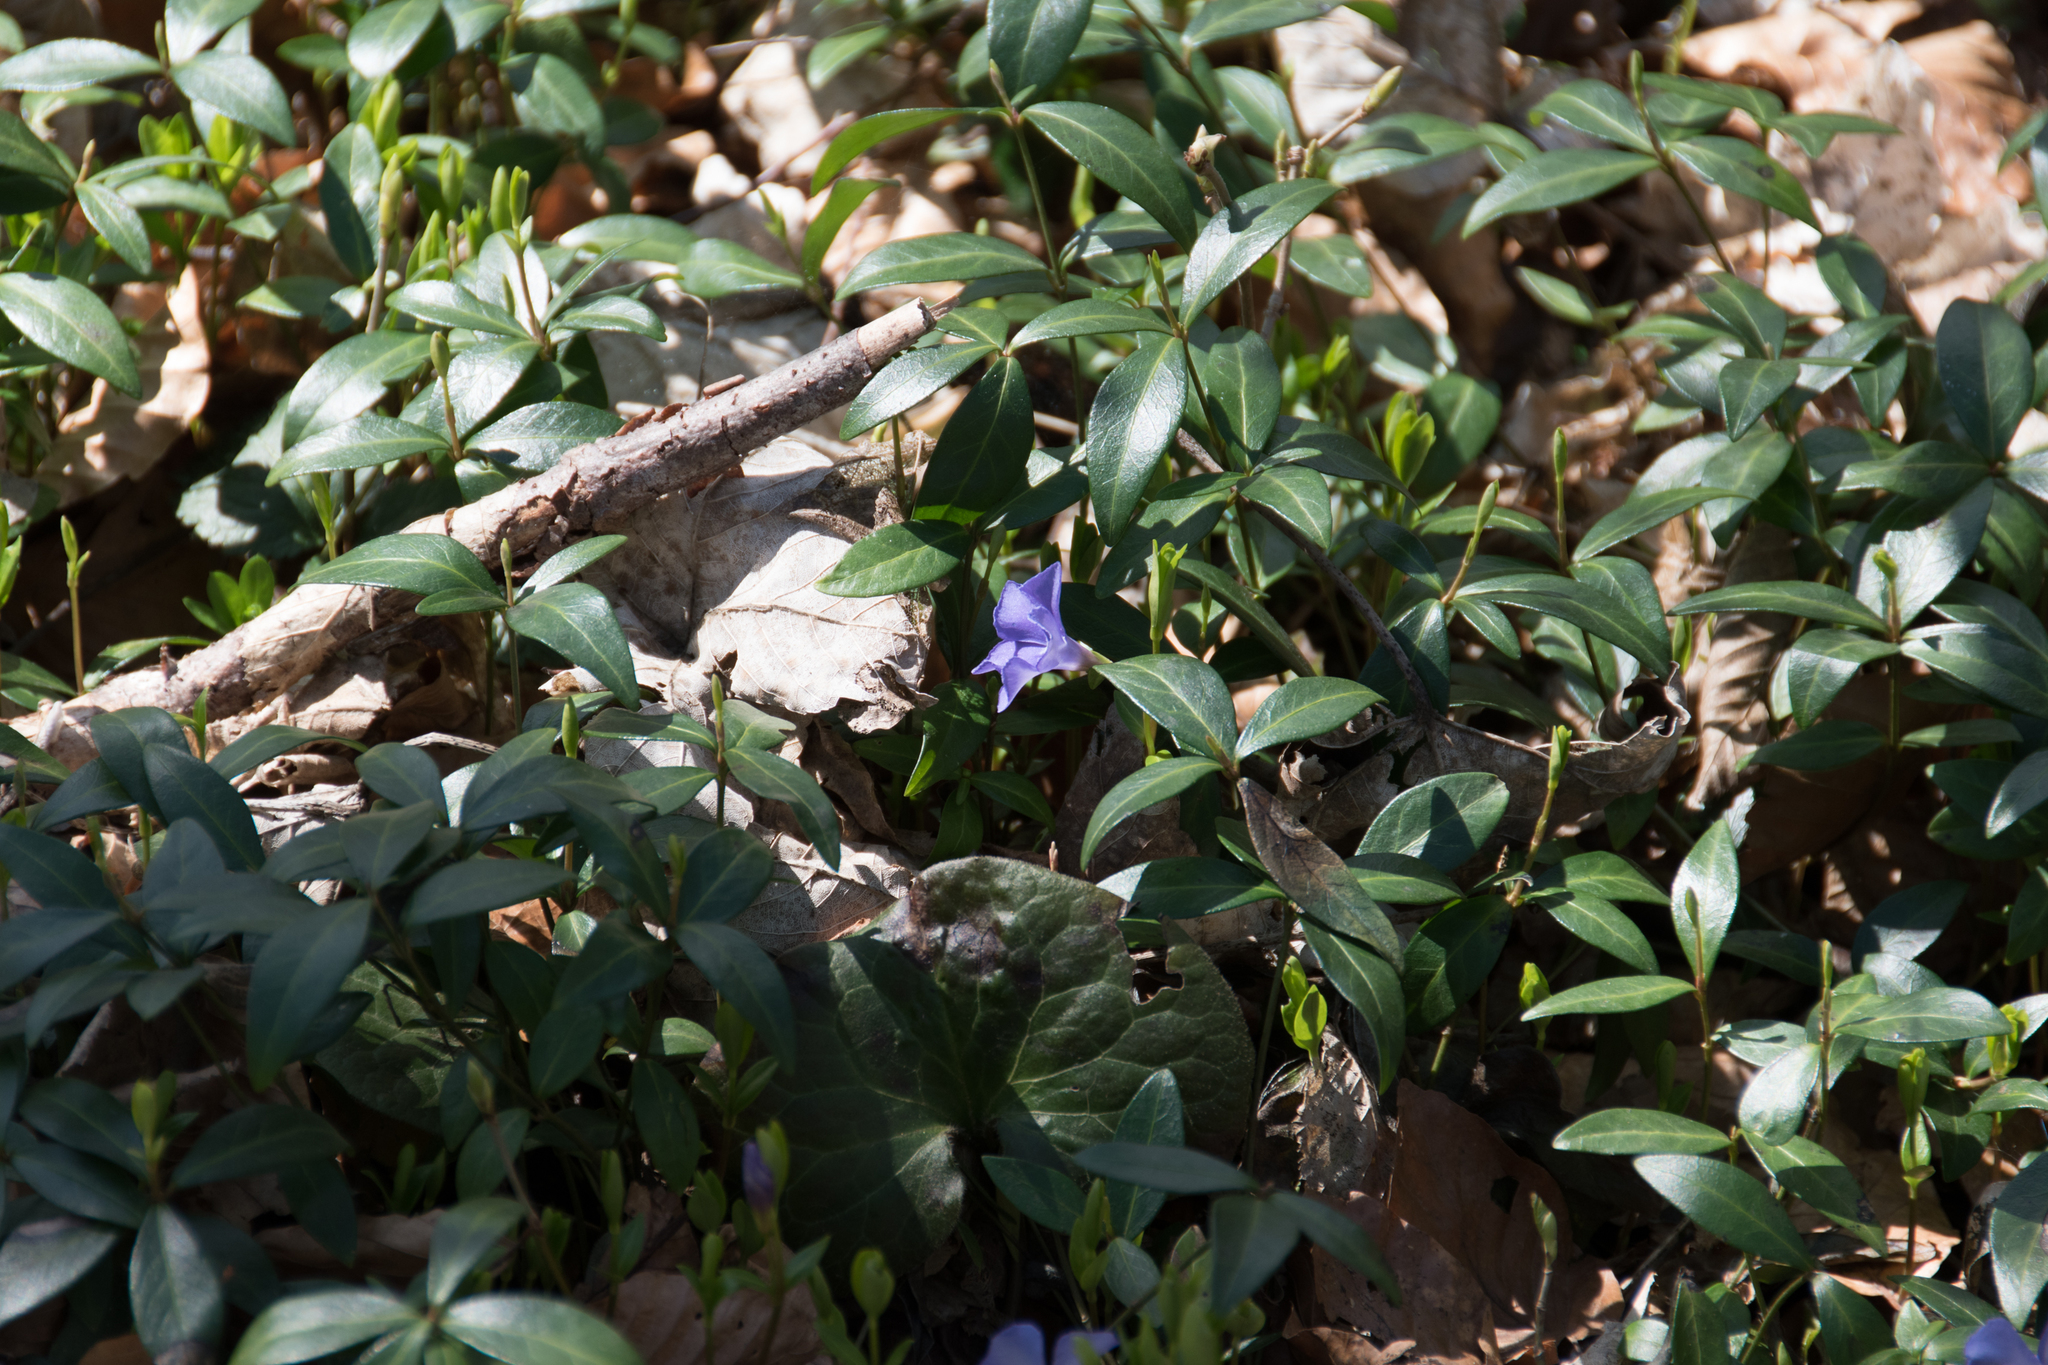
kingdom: Plantae
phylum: Tracheophyta
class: Magnoliopsida
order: Gentianales
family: Apocynaceae
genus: Vinca
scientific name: Vinca minor
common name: Lesser periwinkle
